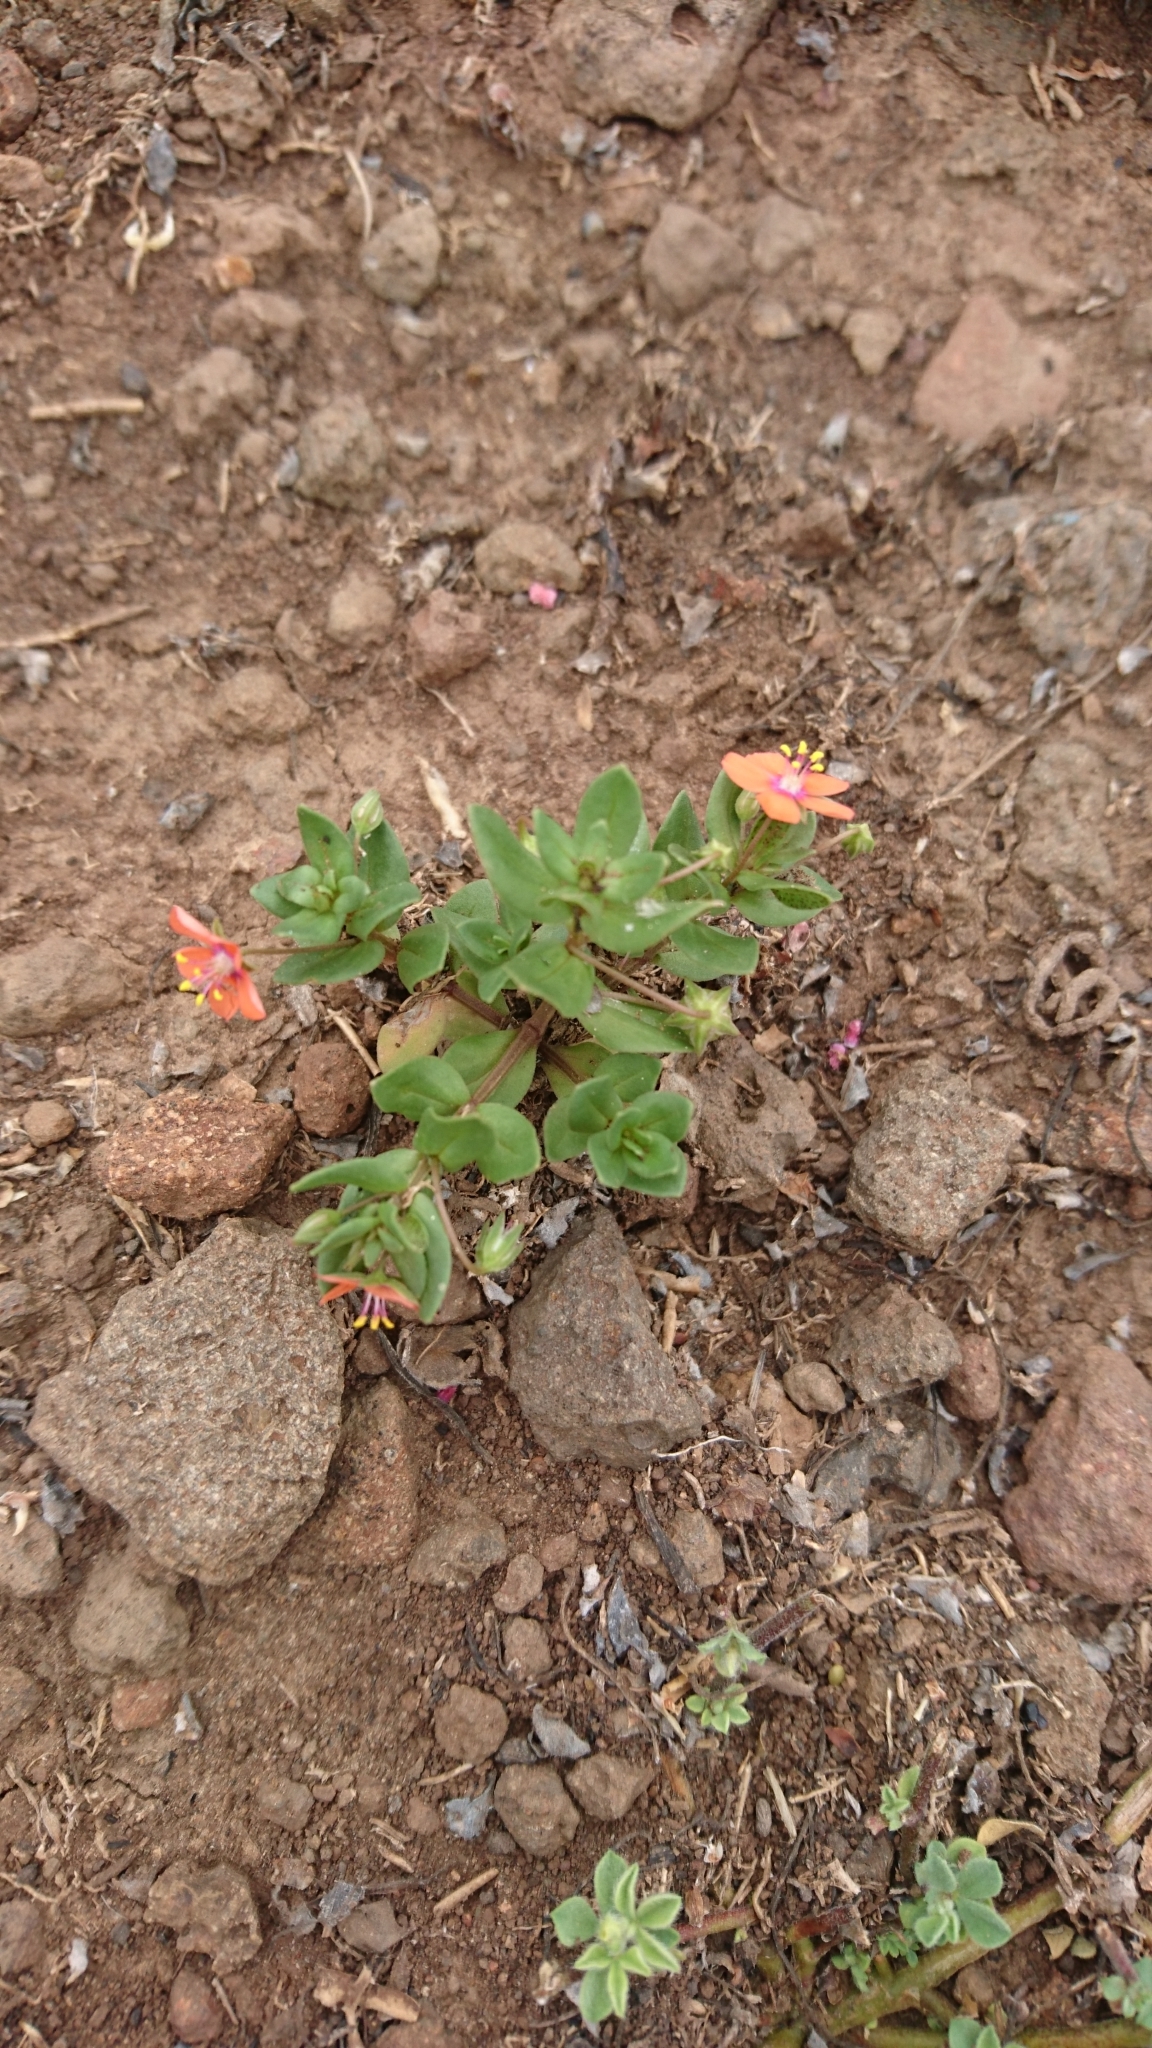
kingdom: Plantae
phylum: Tracheophyta
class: Magnoliopsida
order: Ericales
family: Primulaceae
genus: Lysimachia
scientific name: Lysimachia arvensis
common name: Scarlet pimpernel
